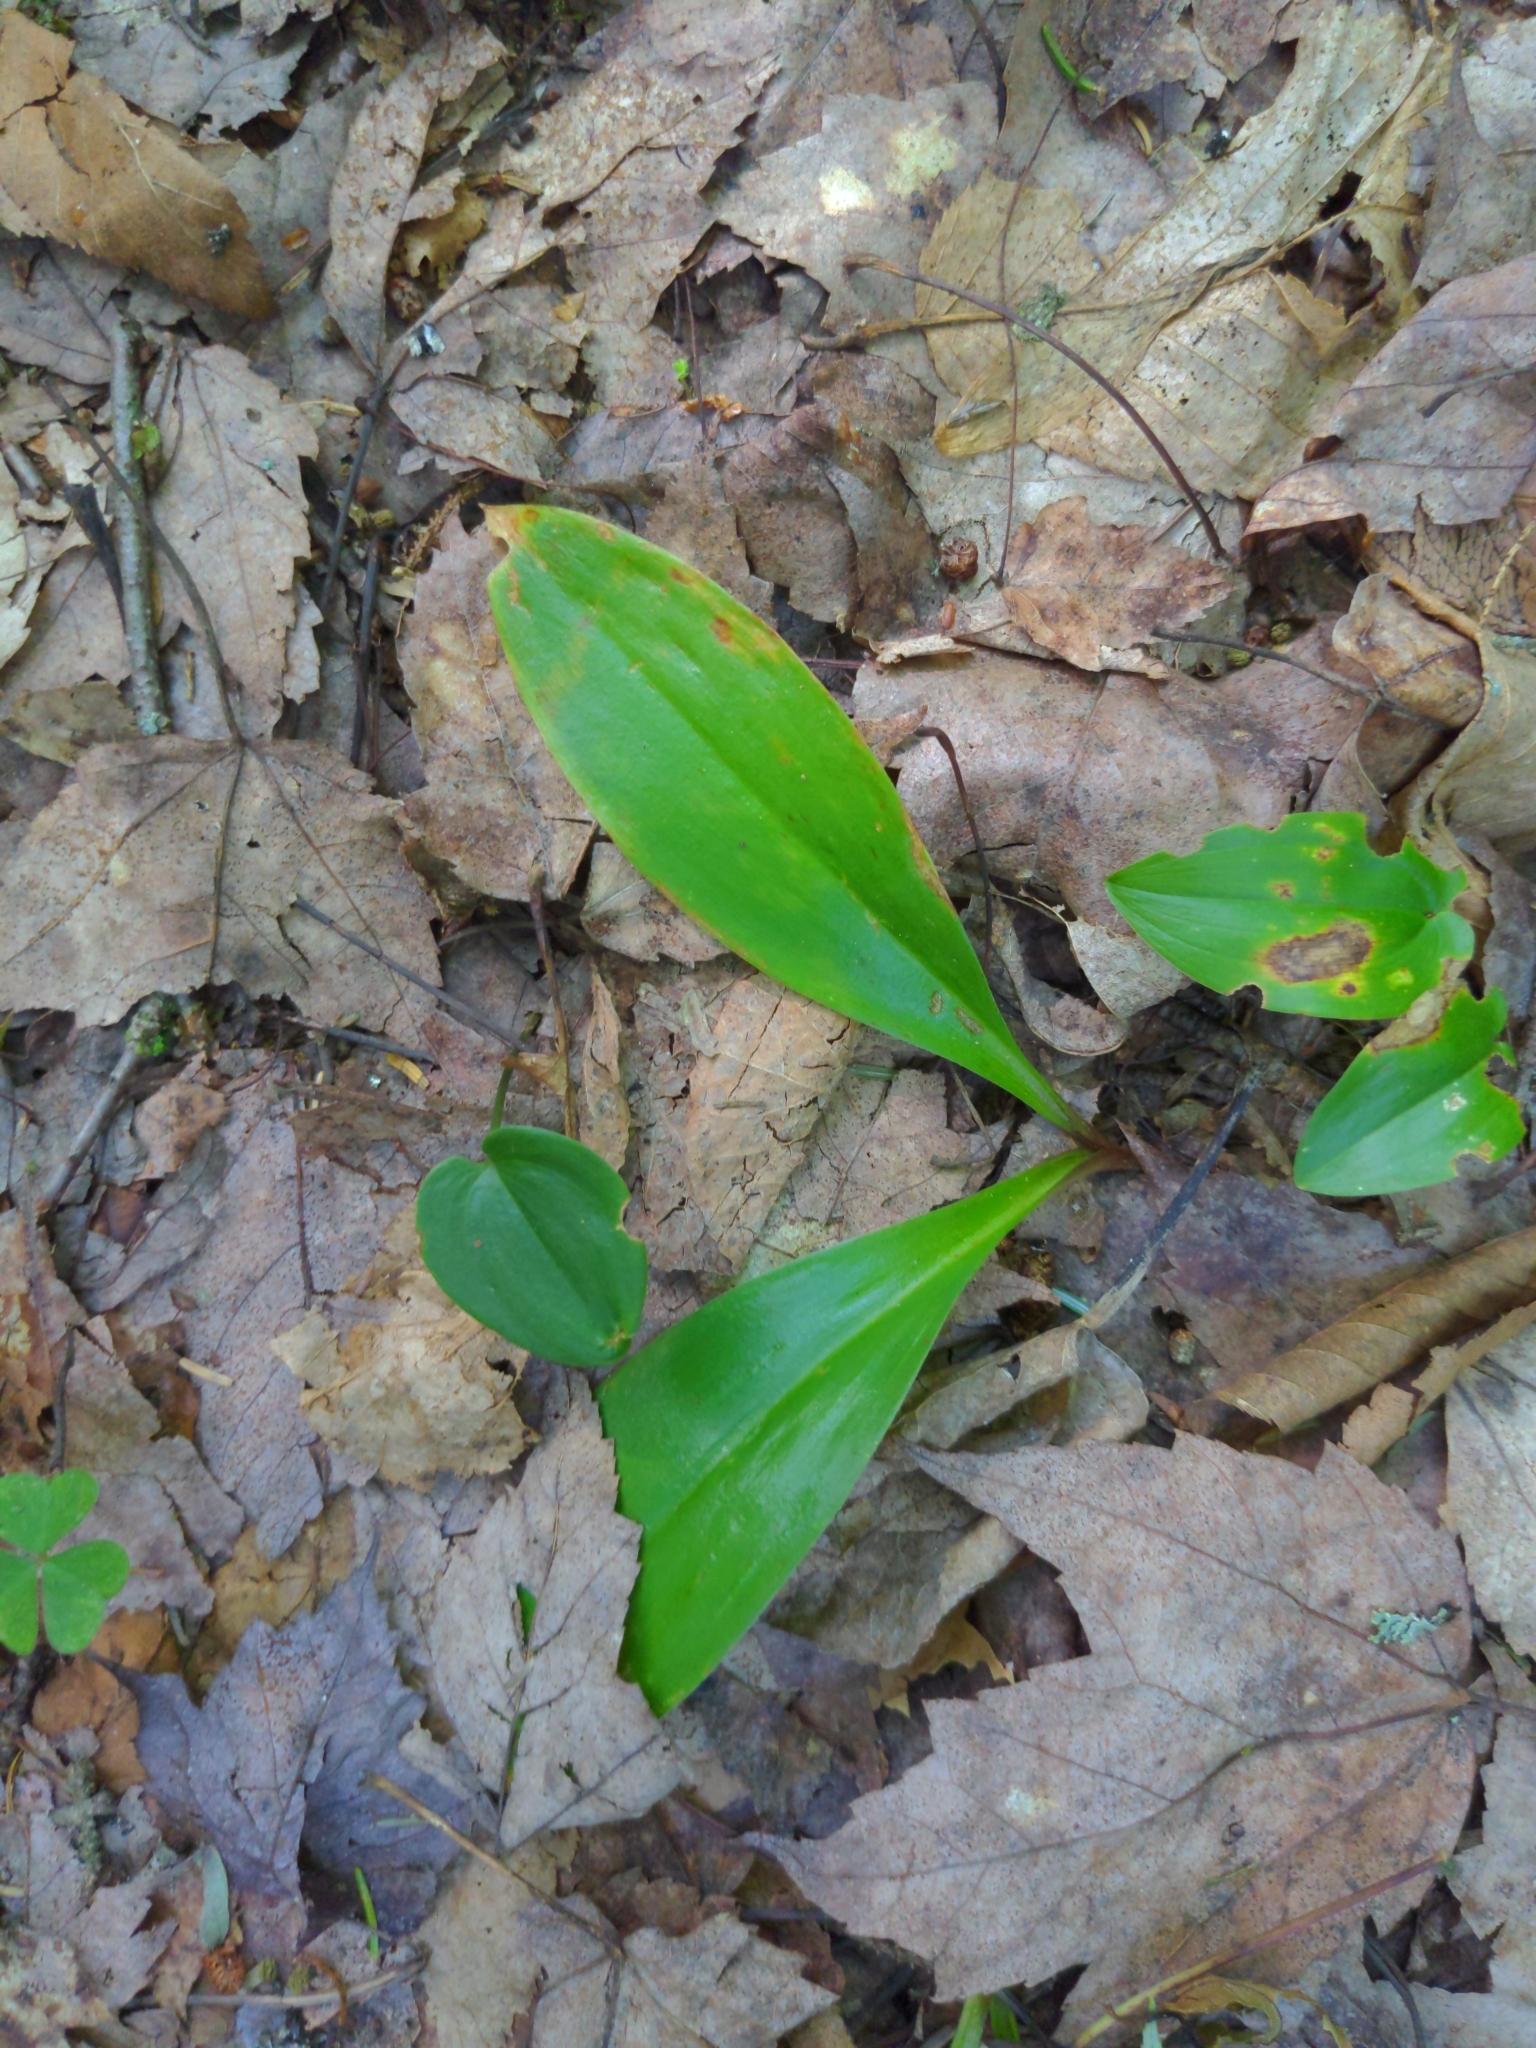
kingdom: Plantae
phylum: Tracheophyta
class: Liliopsida
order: Liliales
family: Liliaceae
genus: Clintonia
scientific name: Clintonia borealis
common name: Yellow clintonia
